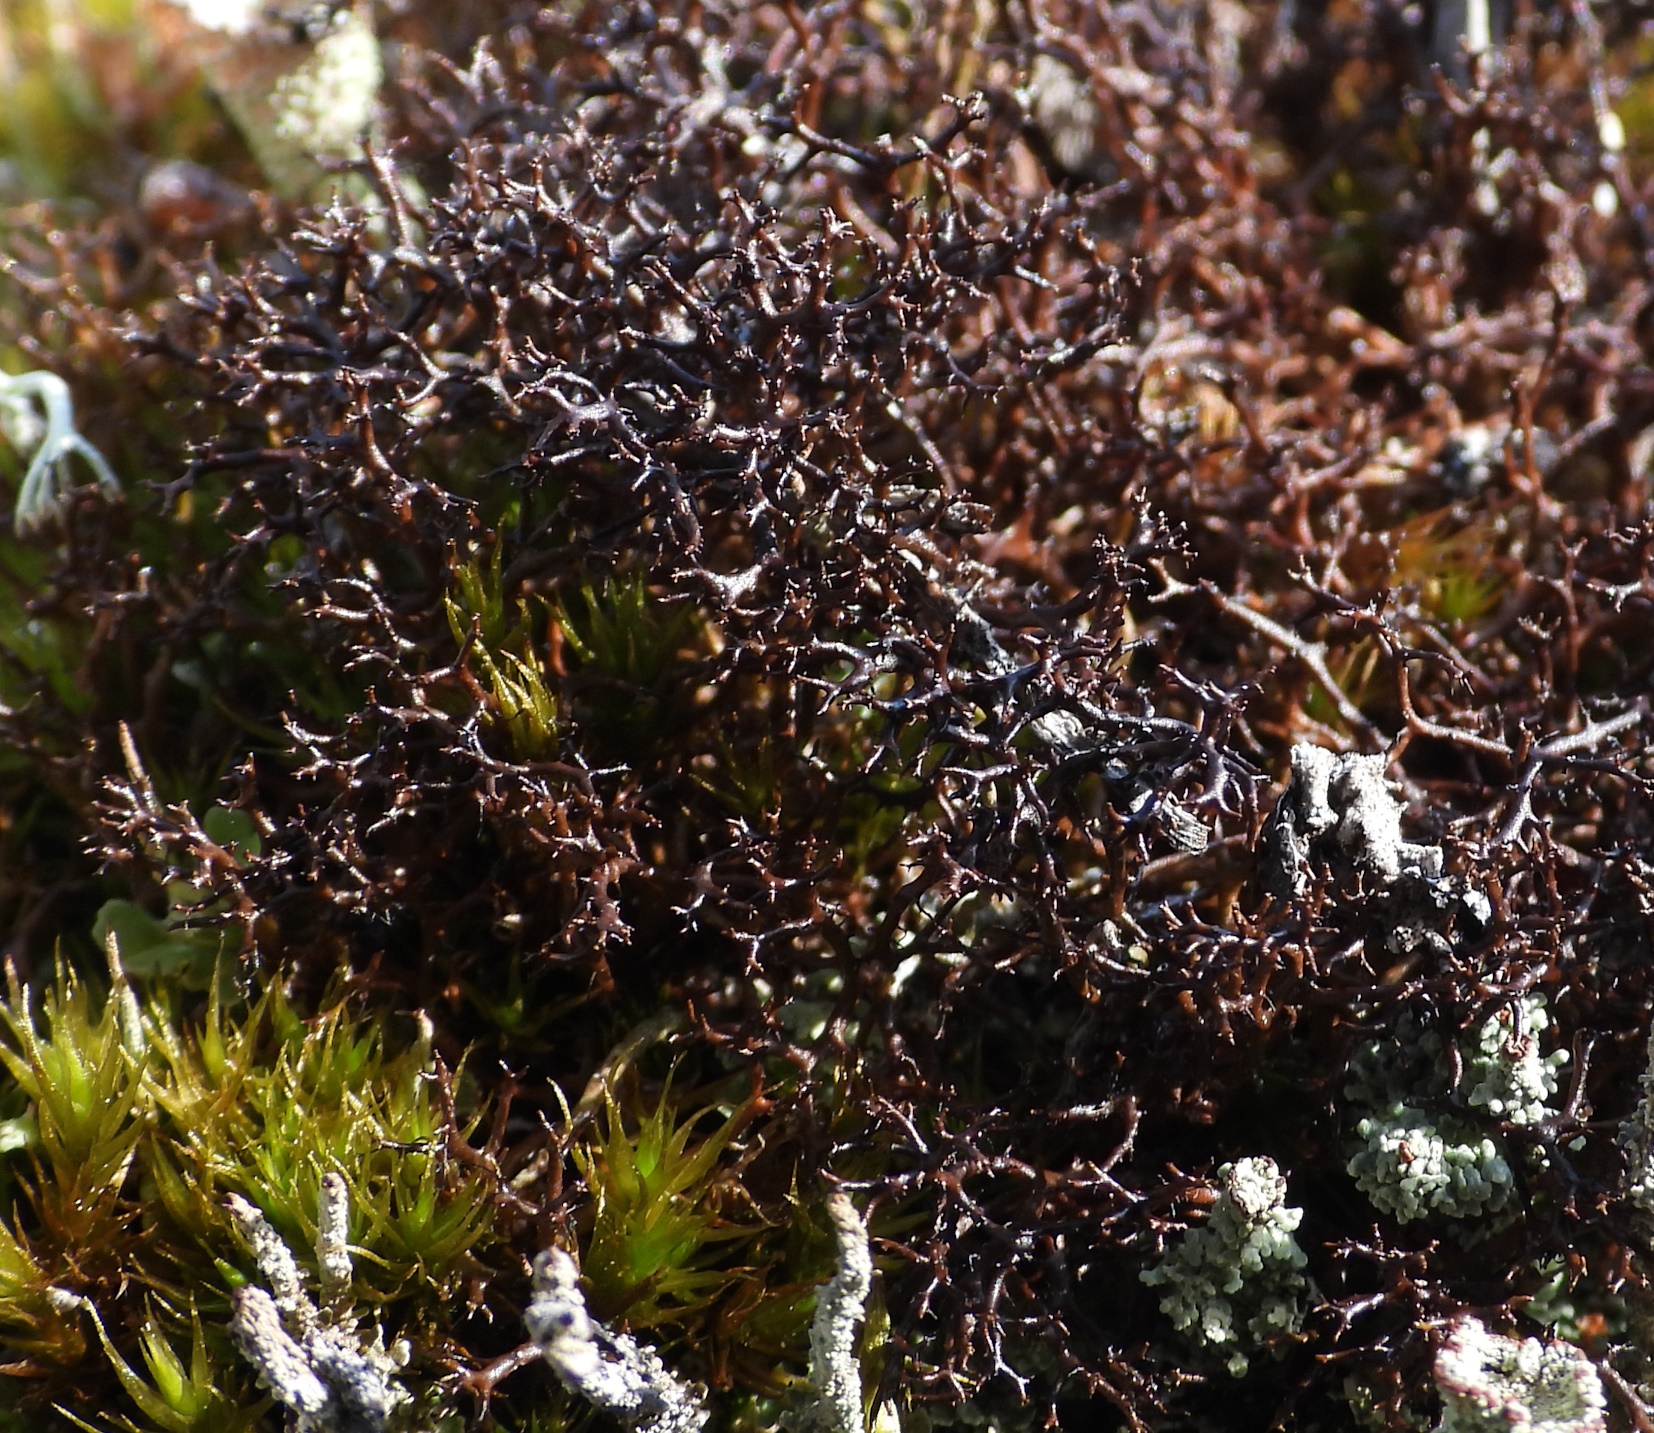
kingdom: Fungi
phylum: Ascomycota
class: Lecanoromycetes
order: Lecanorales
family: Parmeliaceae
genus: Cetraria
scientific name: Cetraria muricata
